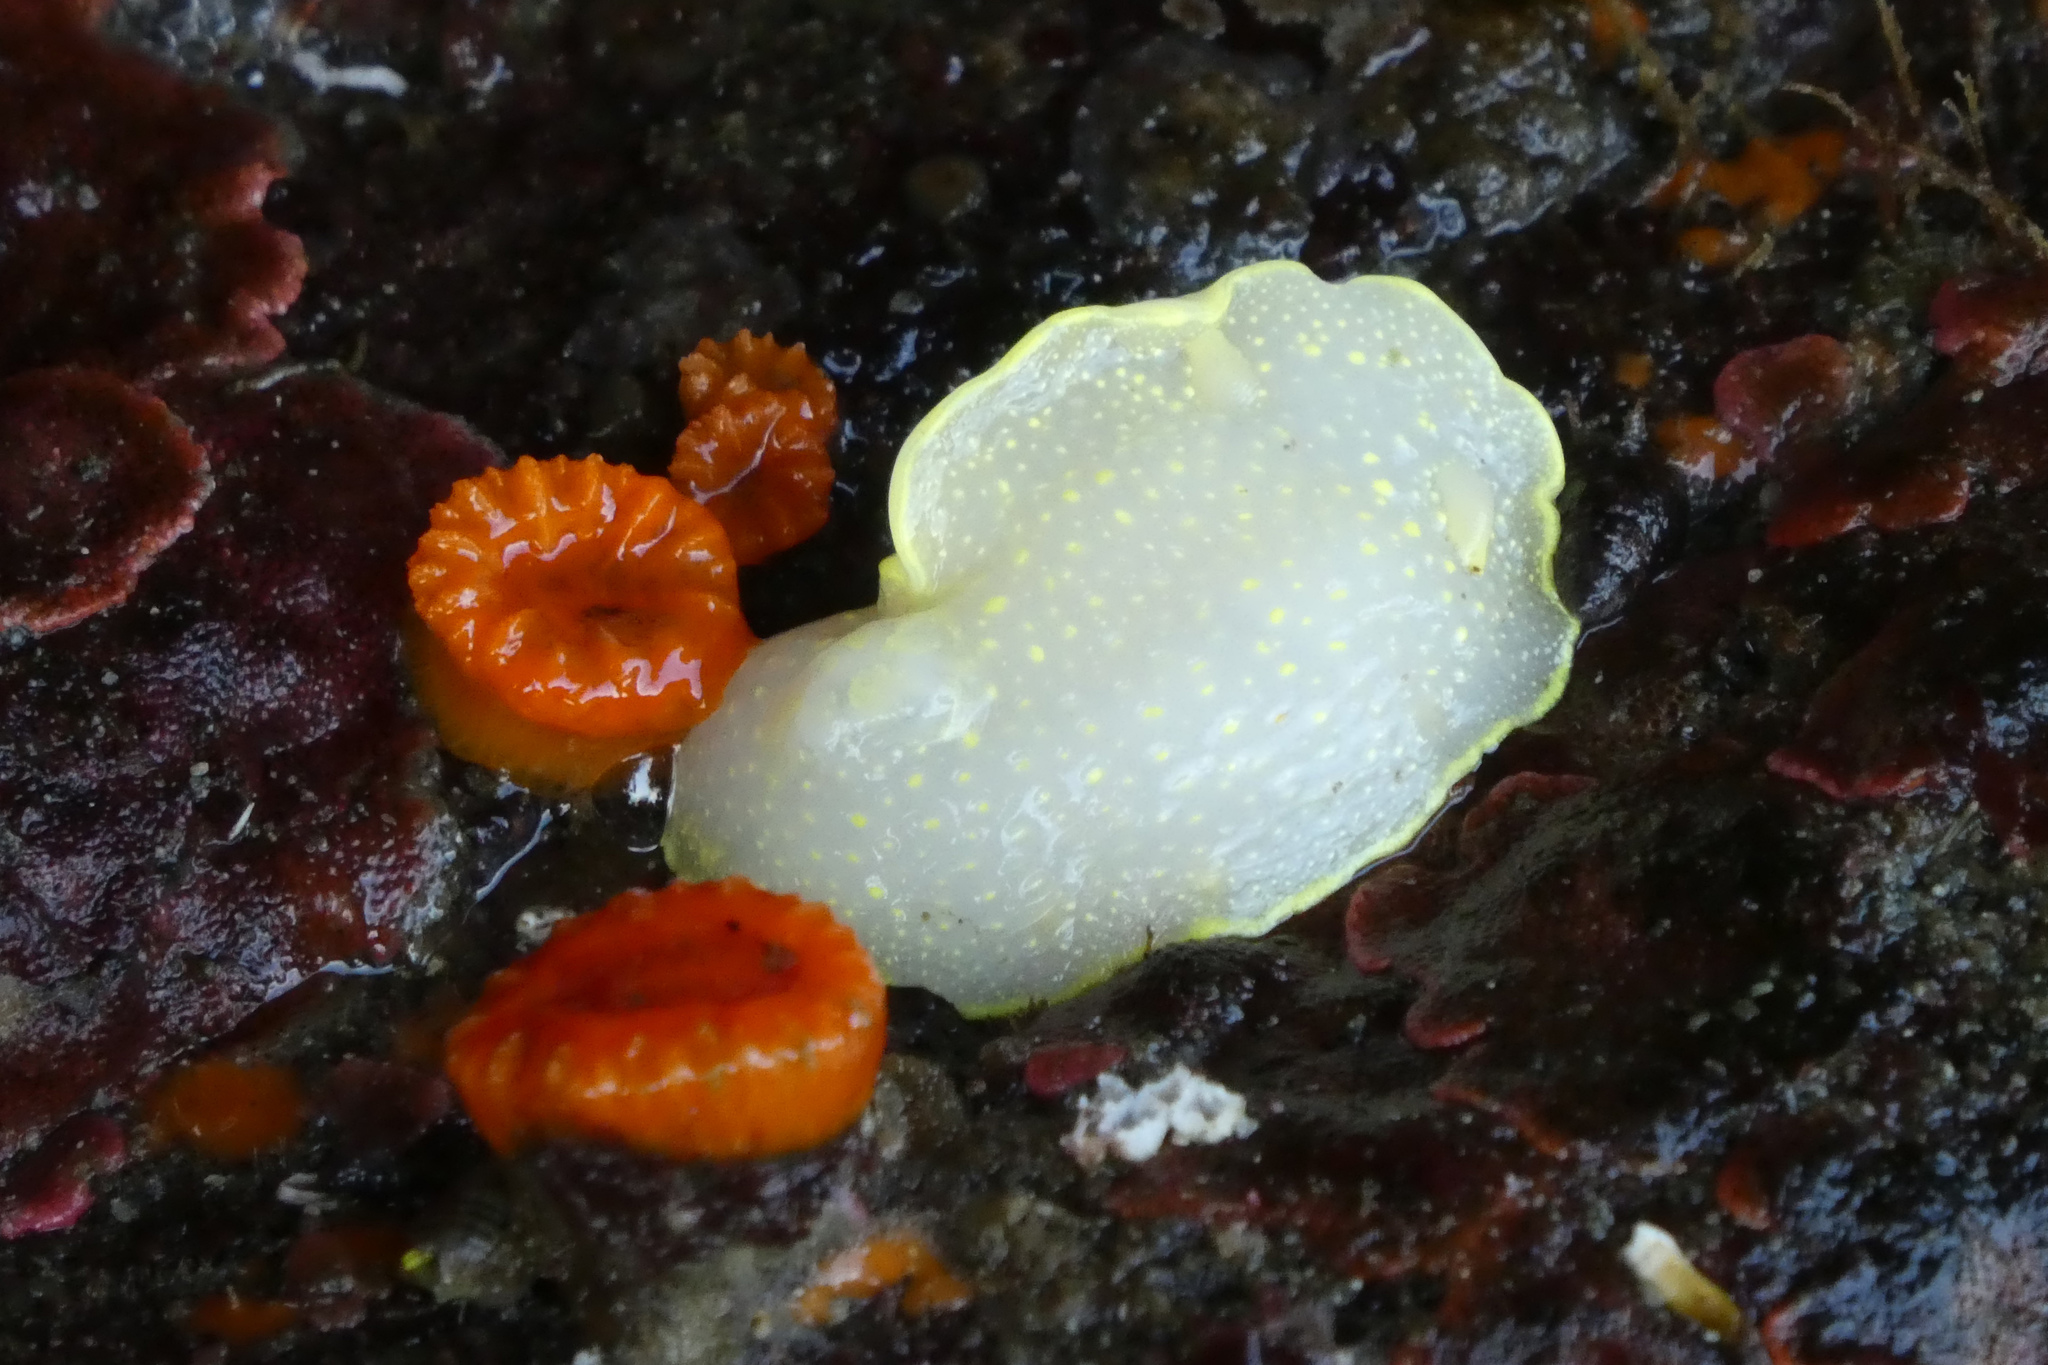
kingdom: Animalia
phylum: Mollusca
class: Gastropoda
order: Nudibranchia
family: Cadlinidae
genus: Cadlina
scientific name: Cadlina luteomarginata
